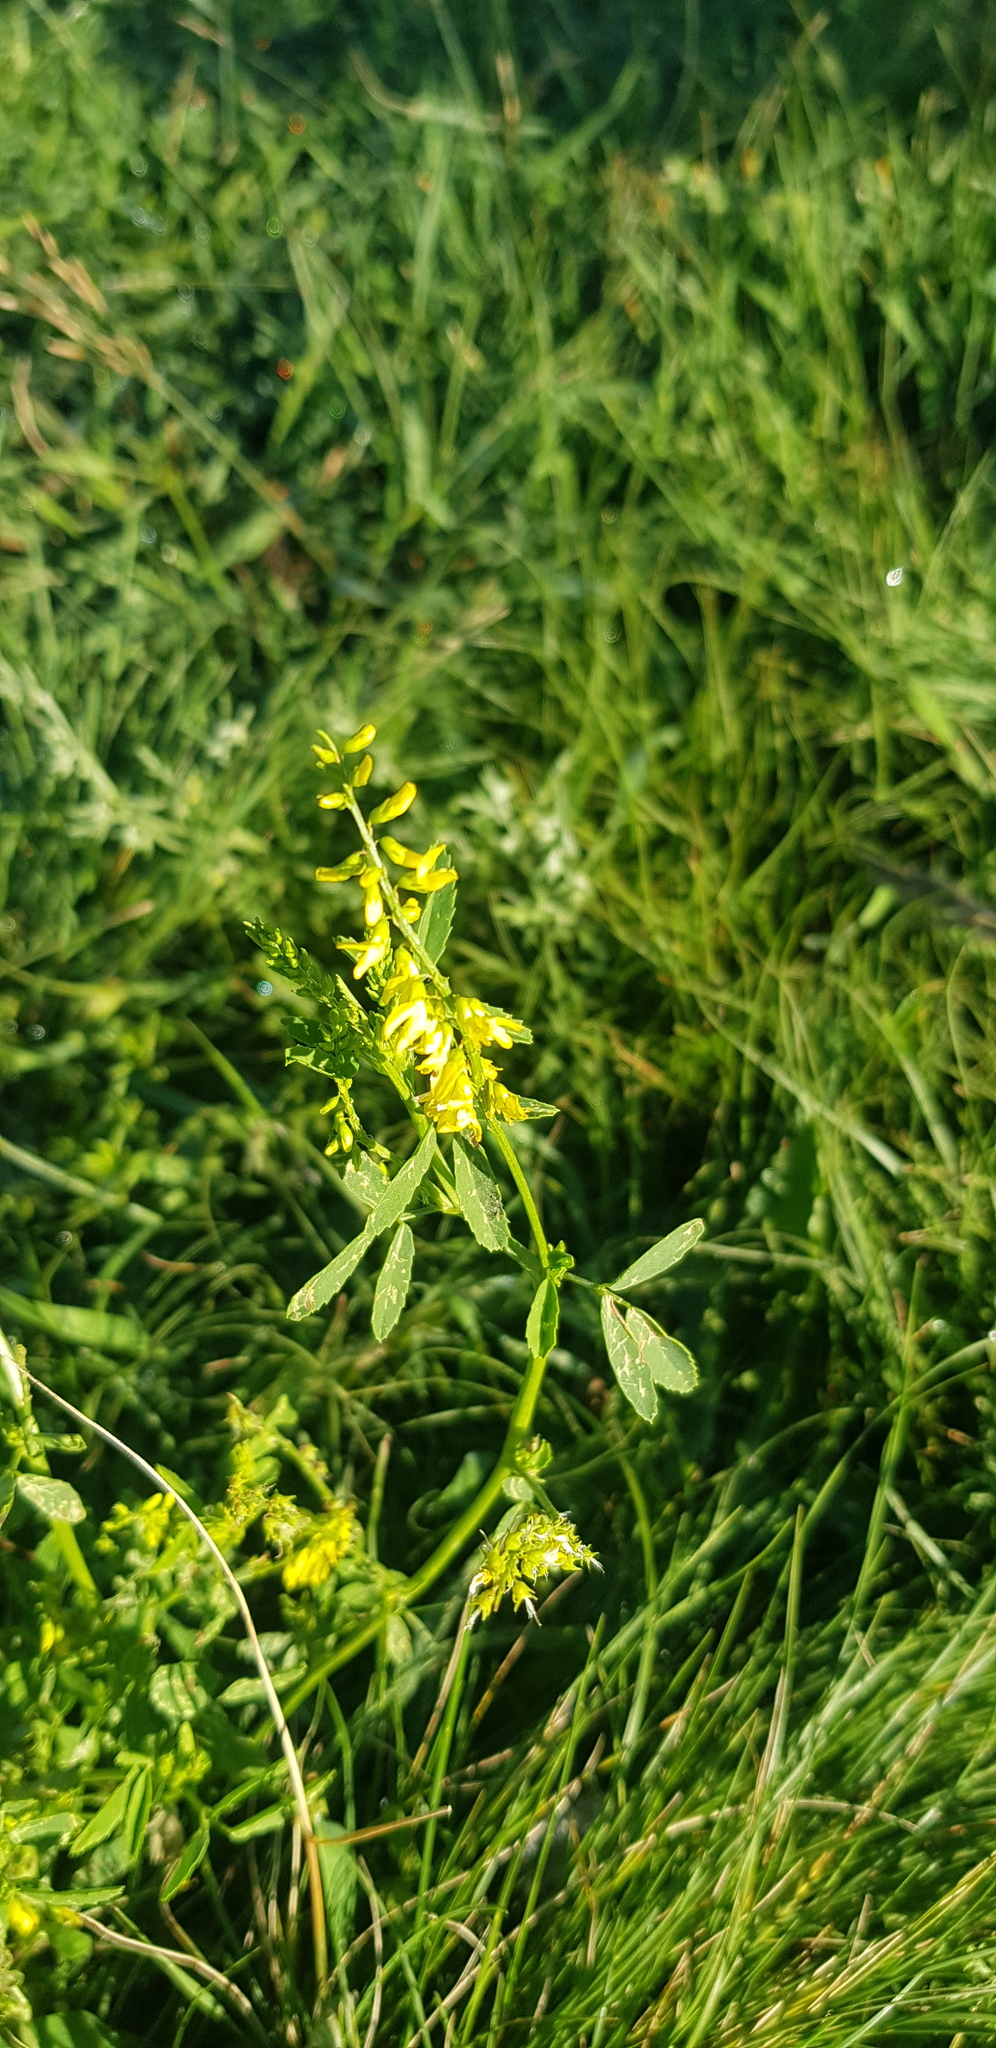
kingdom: Plantae
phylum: Tracheophyta
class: Magnoliopsida
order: Fabales
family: Fabaceae
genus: Melilotus
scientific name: Melilotus officinalis
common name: Sweetclover
